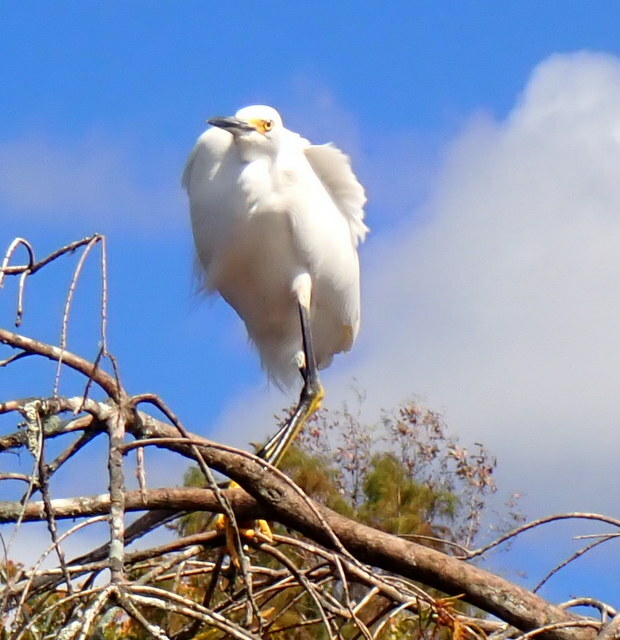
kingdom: Animalia
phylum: Chordata
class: Aves
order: Pelecaniformes
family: Ardeidae
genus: Egretta
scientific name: Egretta thula
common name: Snowy egret
